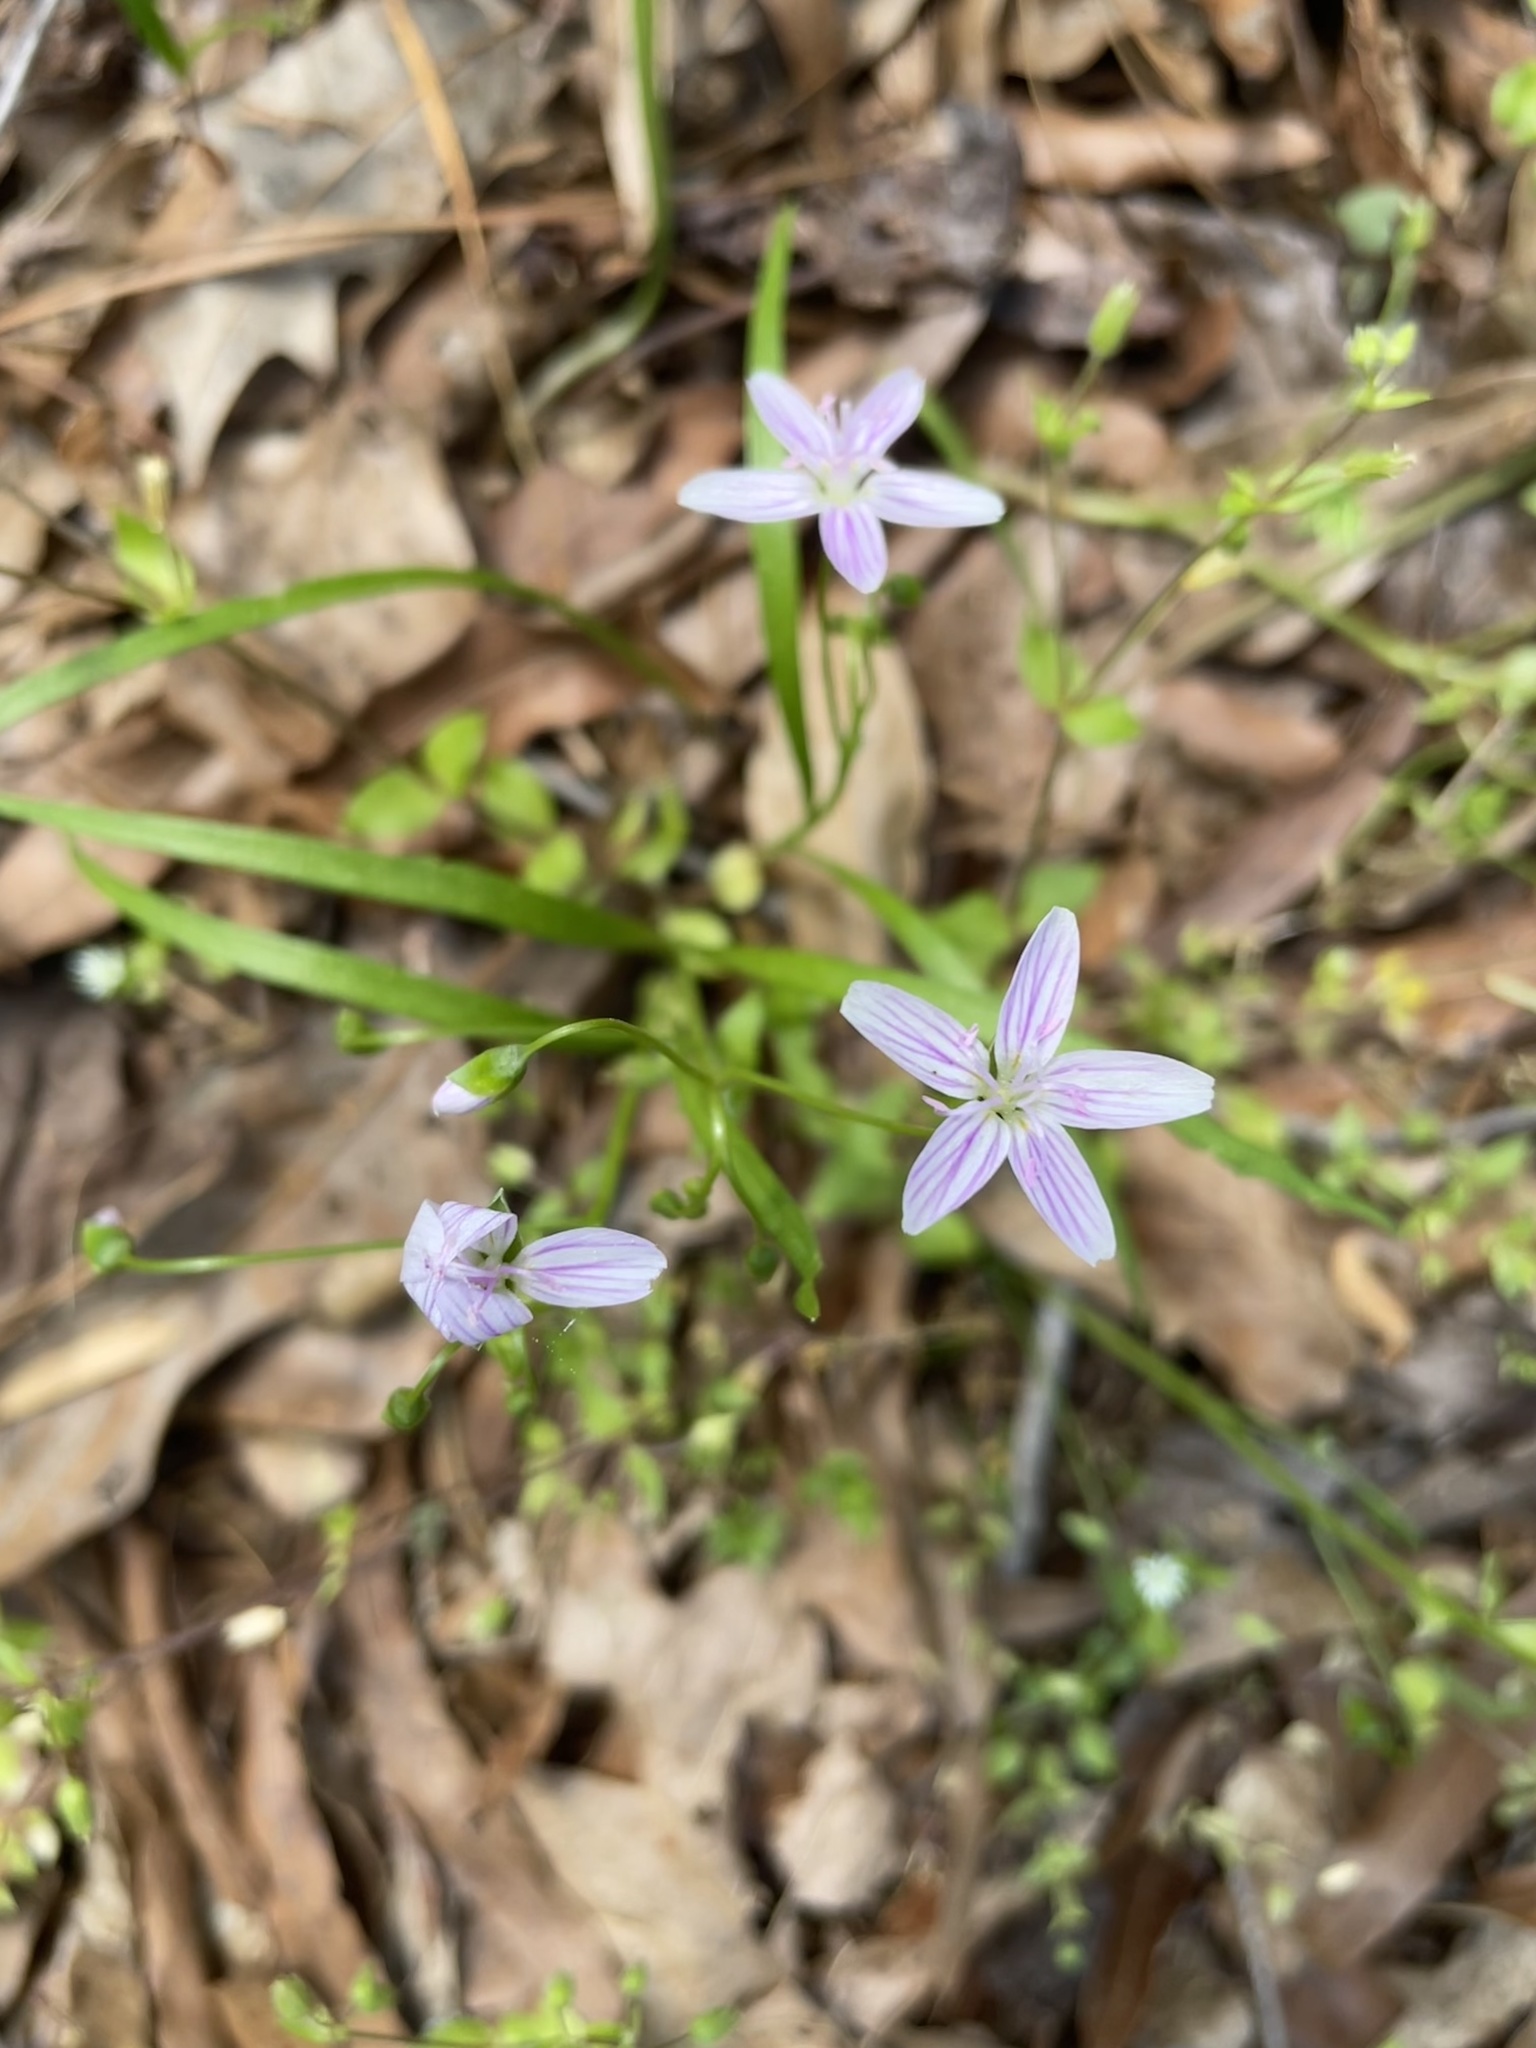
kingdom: Plantae
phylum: Tracheophyta
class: Magnoliopsida
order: Caryophyllales
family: Montiaceae
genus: Claytonia
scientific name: Claytonia virginica
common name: Virginia springbeauty
